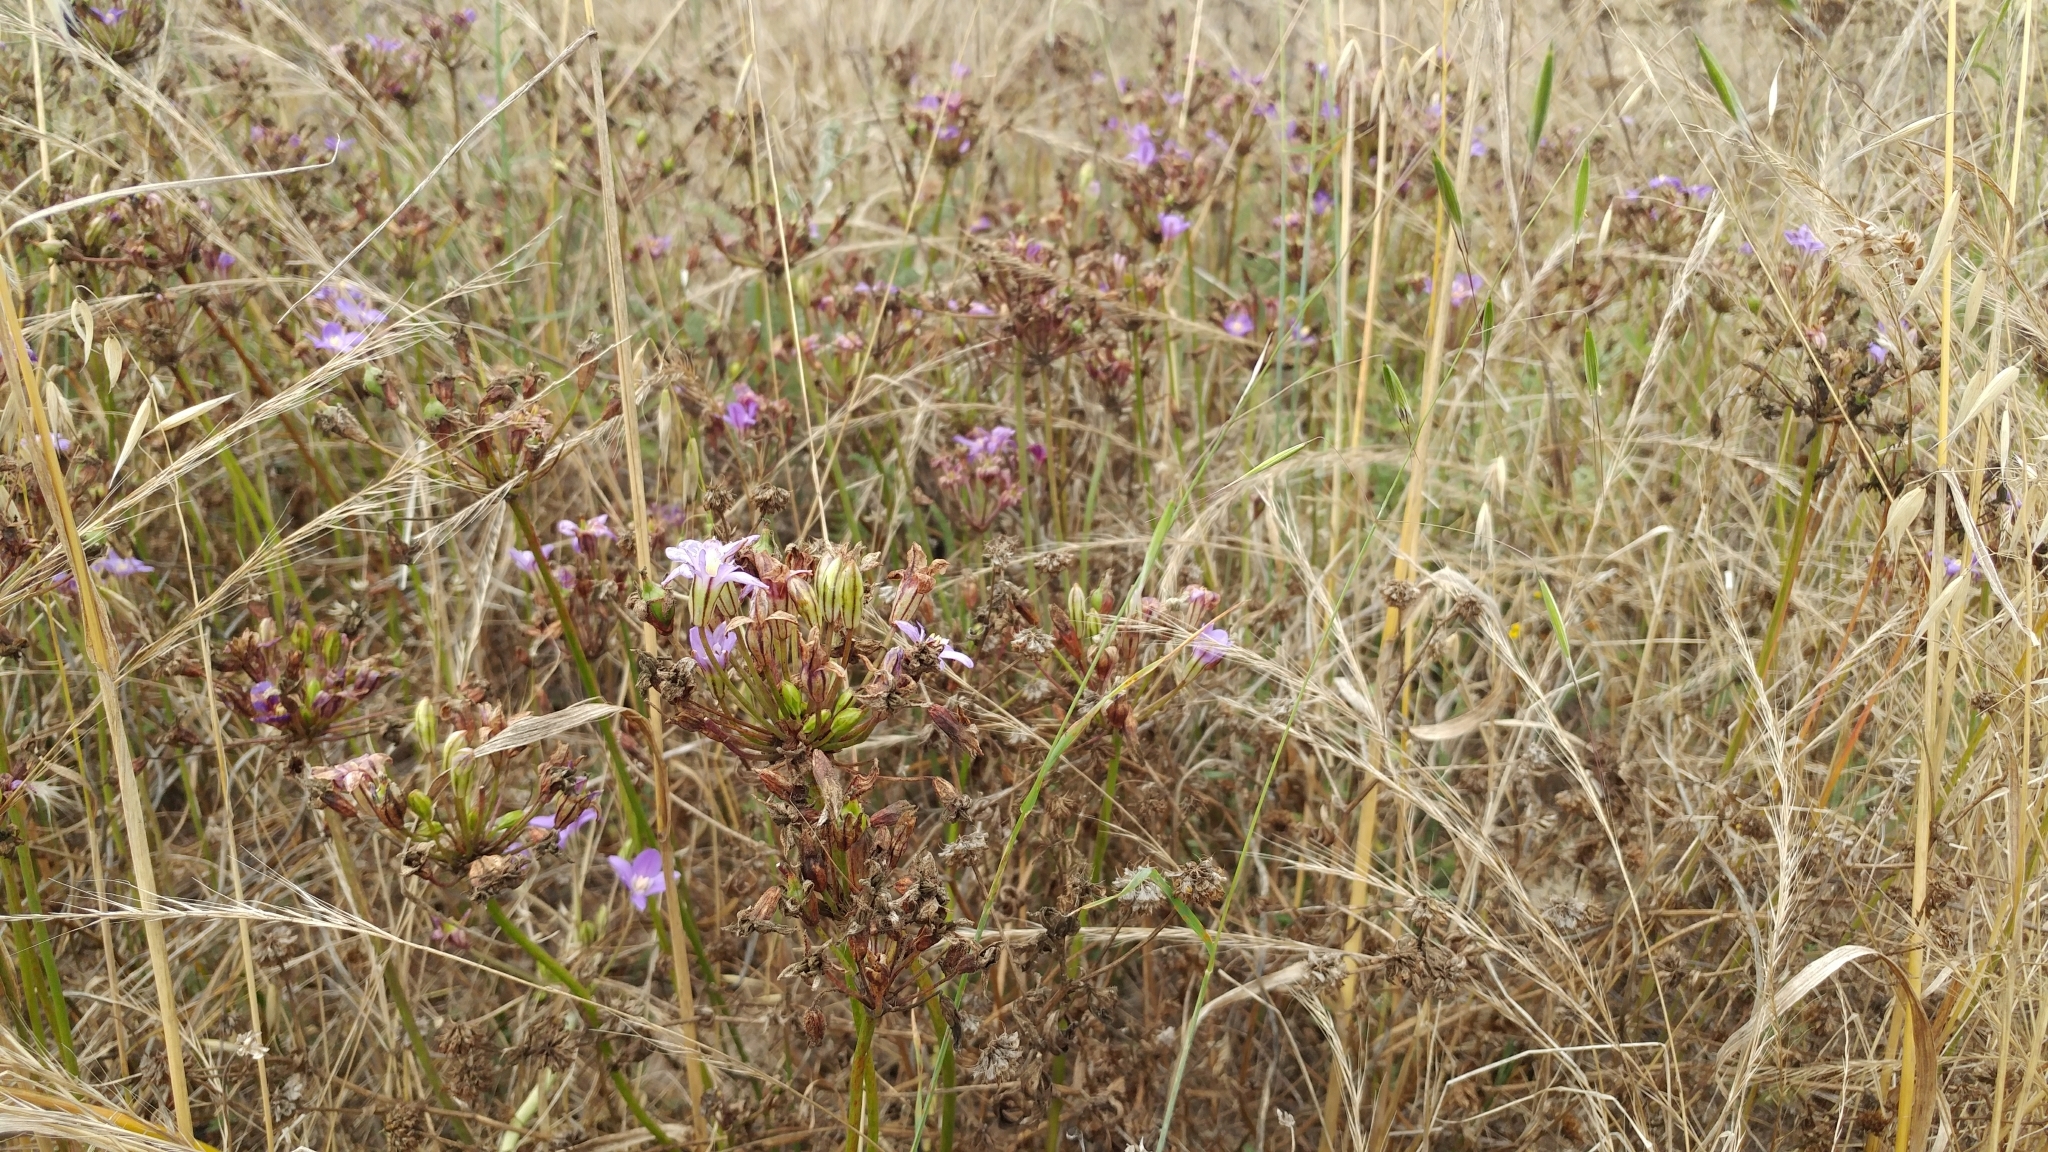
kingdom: Plantae
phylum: Tracheophyta
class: Liliopsida
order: Asparagales
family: Asparagaceae
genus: Brodiaea
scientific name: Brodiaea kinkiensis
